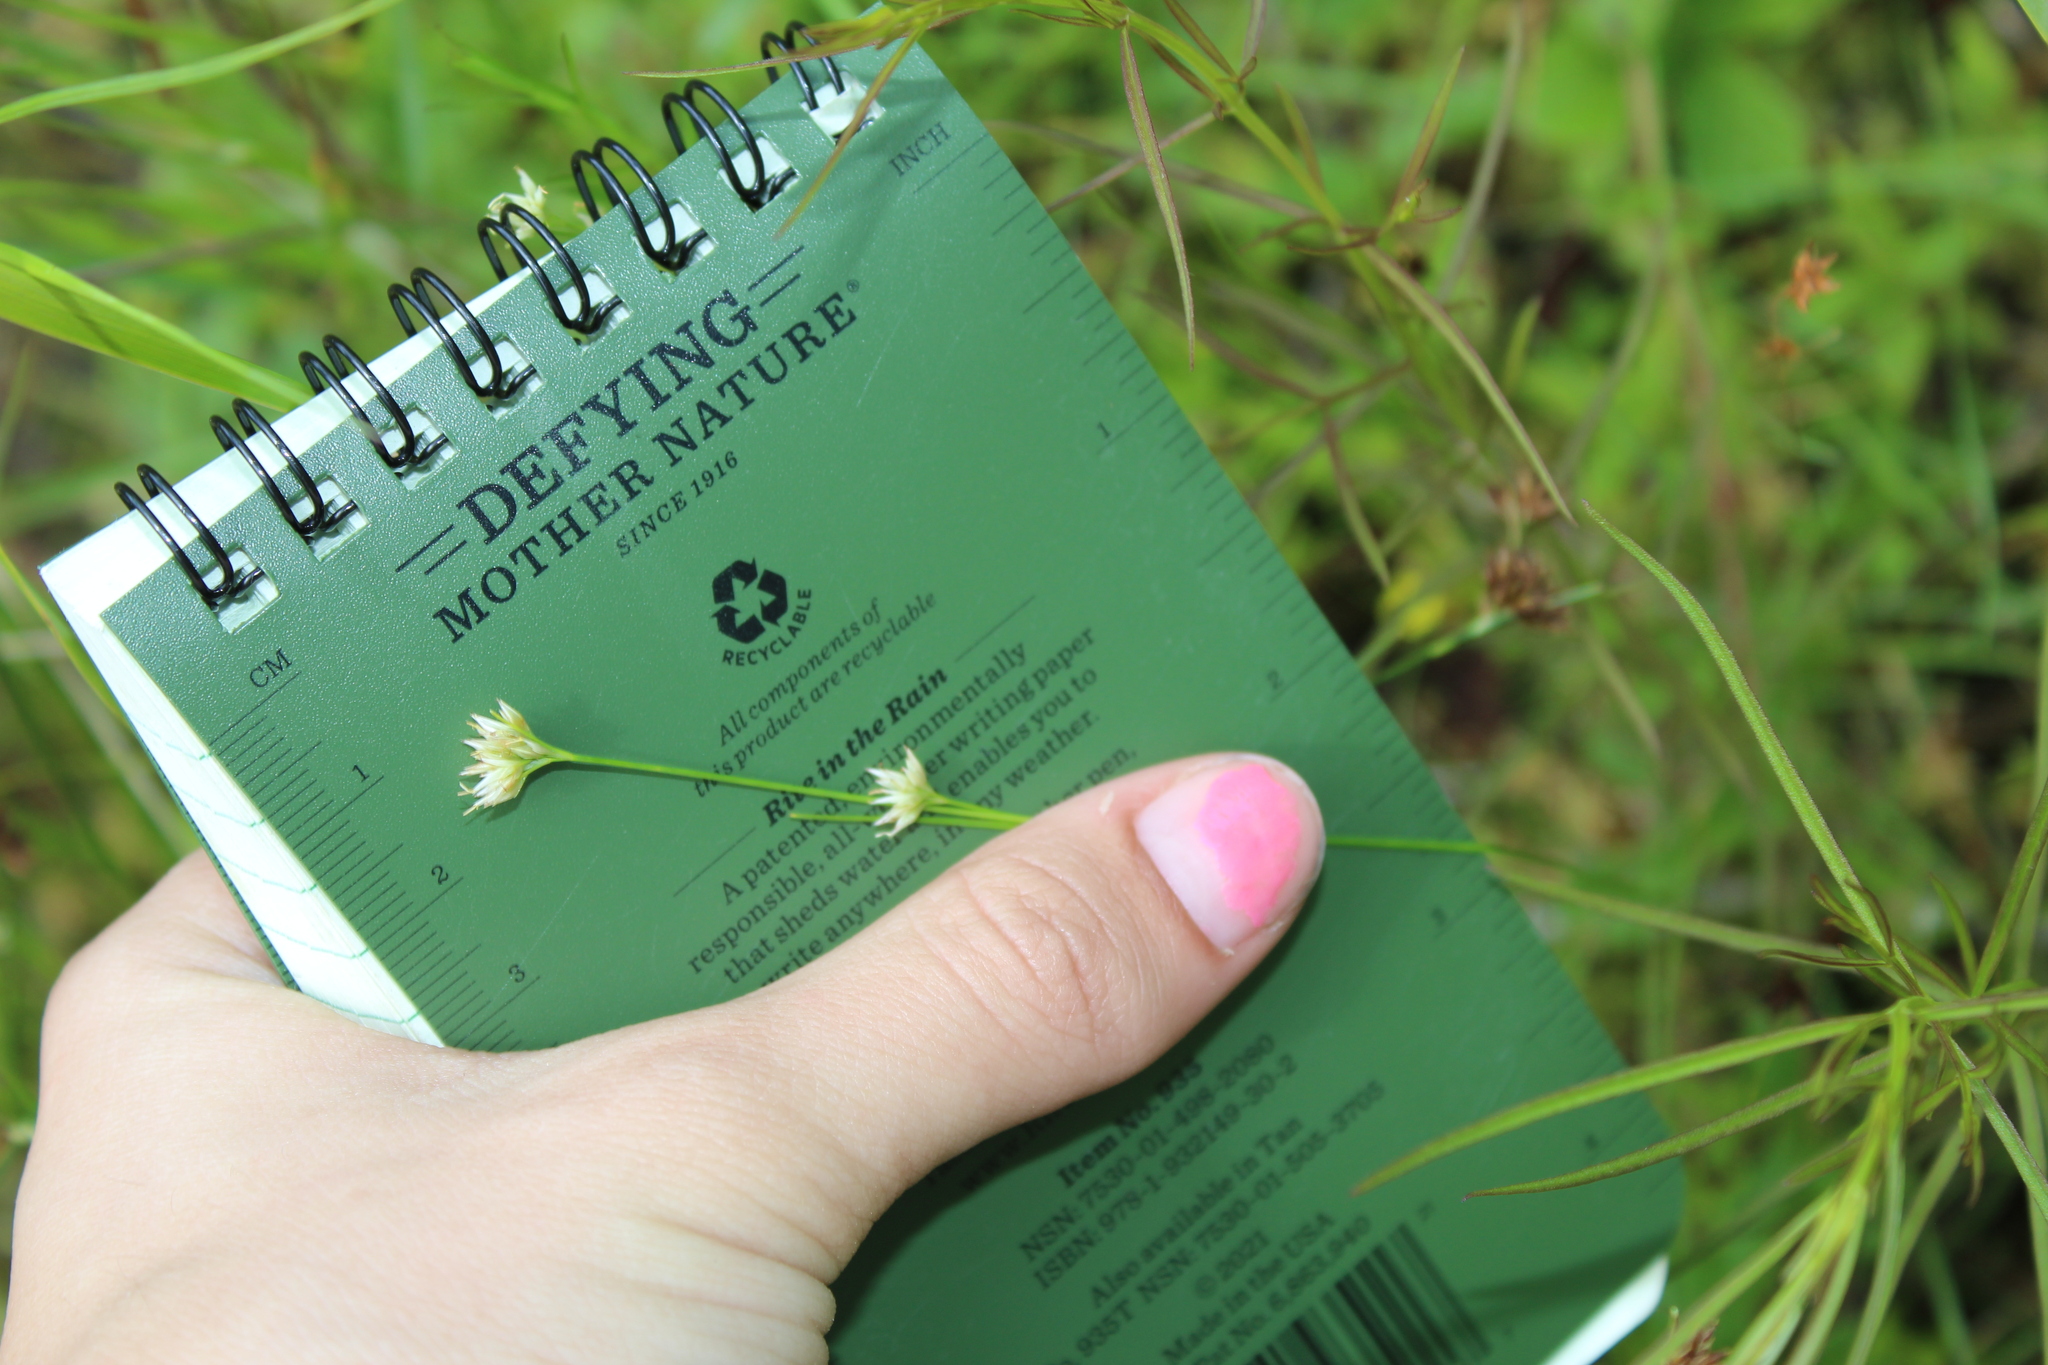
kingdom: Plantae
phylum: Tracheophyta
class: Liliopsida
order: Poales
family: Cyperaceae
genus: Rhynchospora
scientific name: Rhynchospora alba
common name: White beak-sedge
